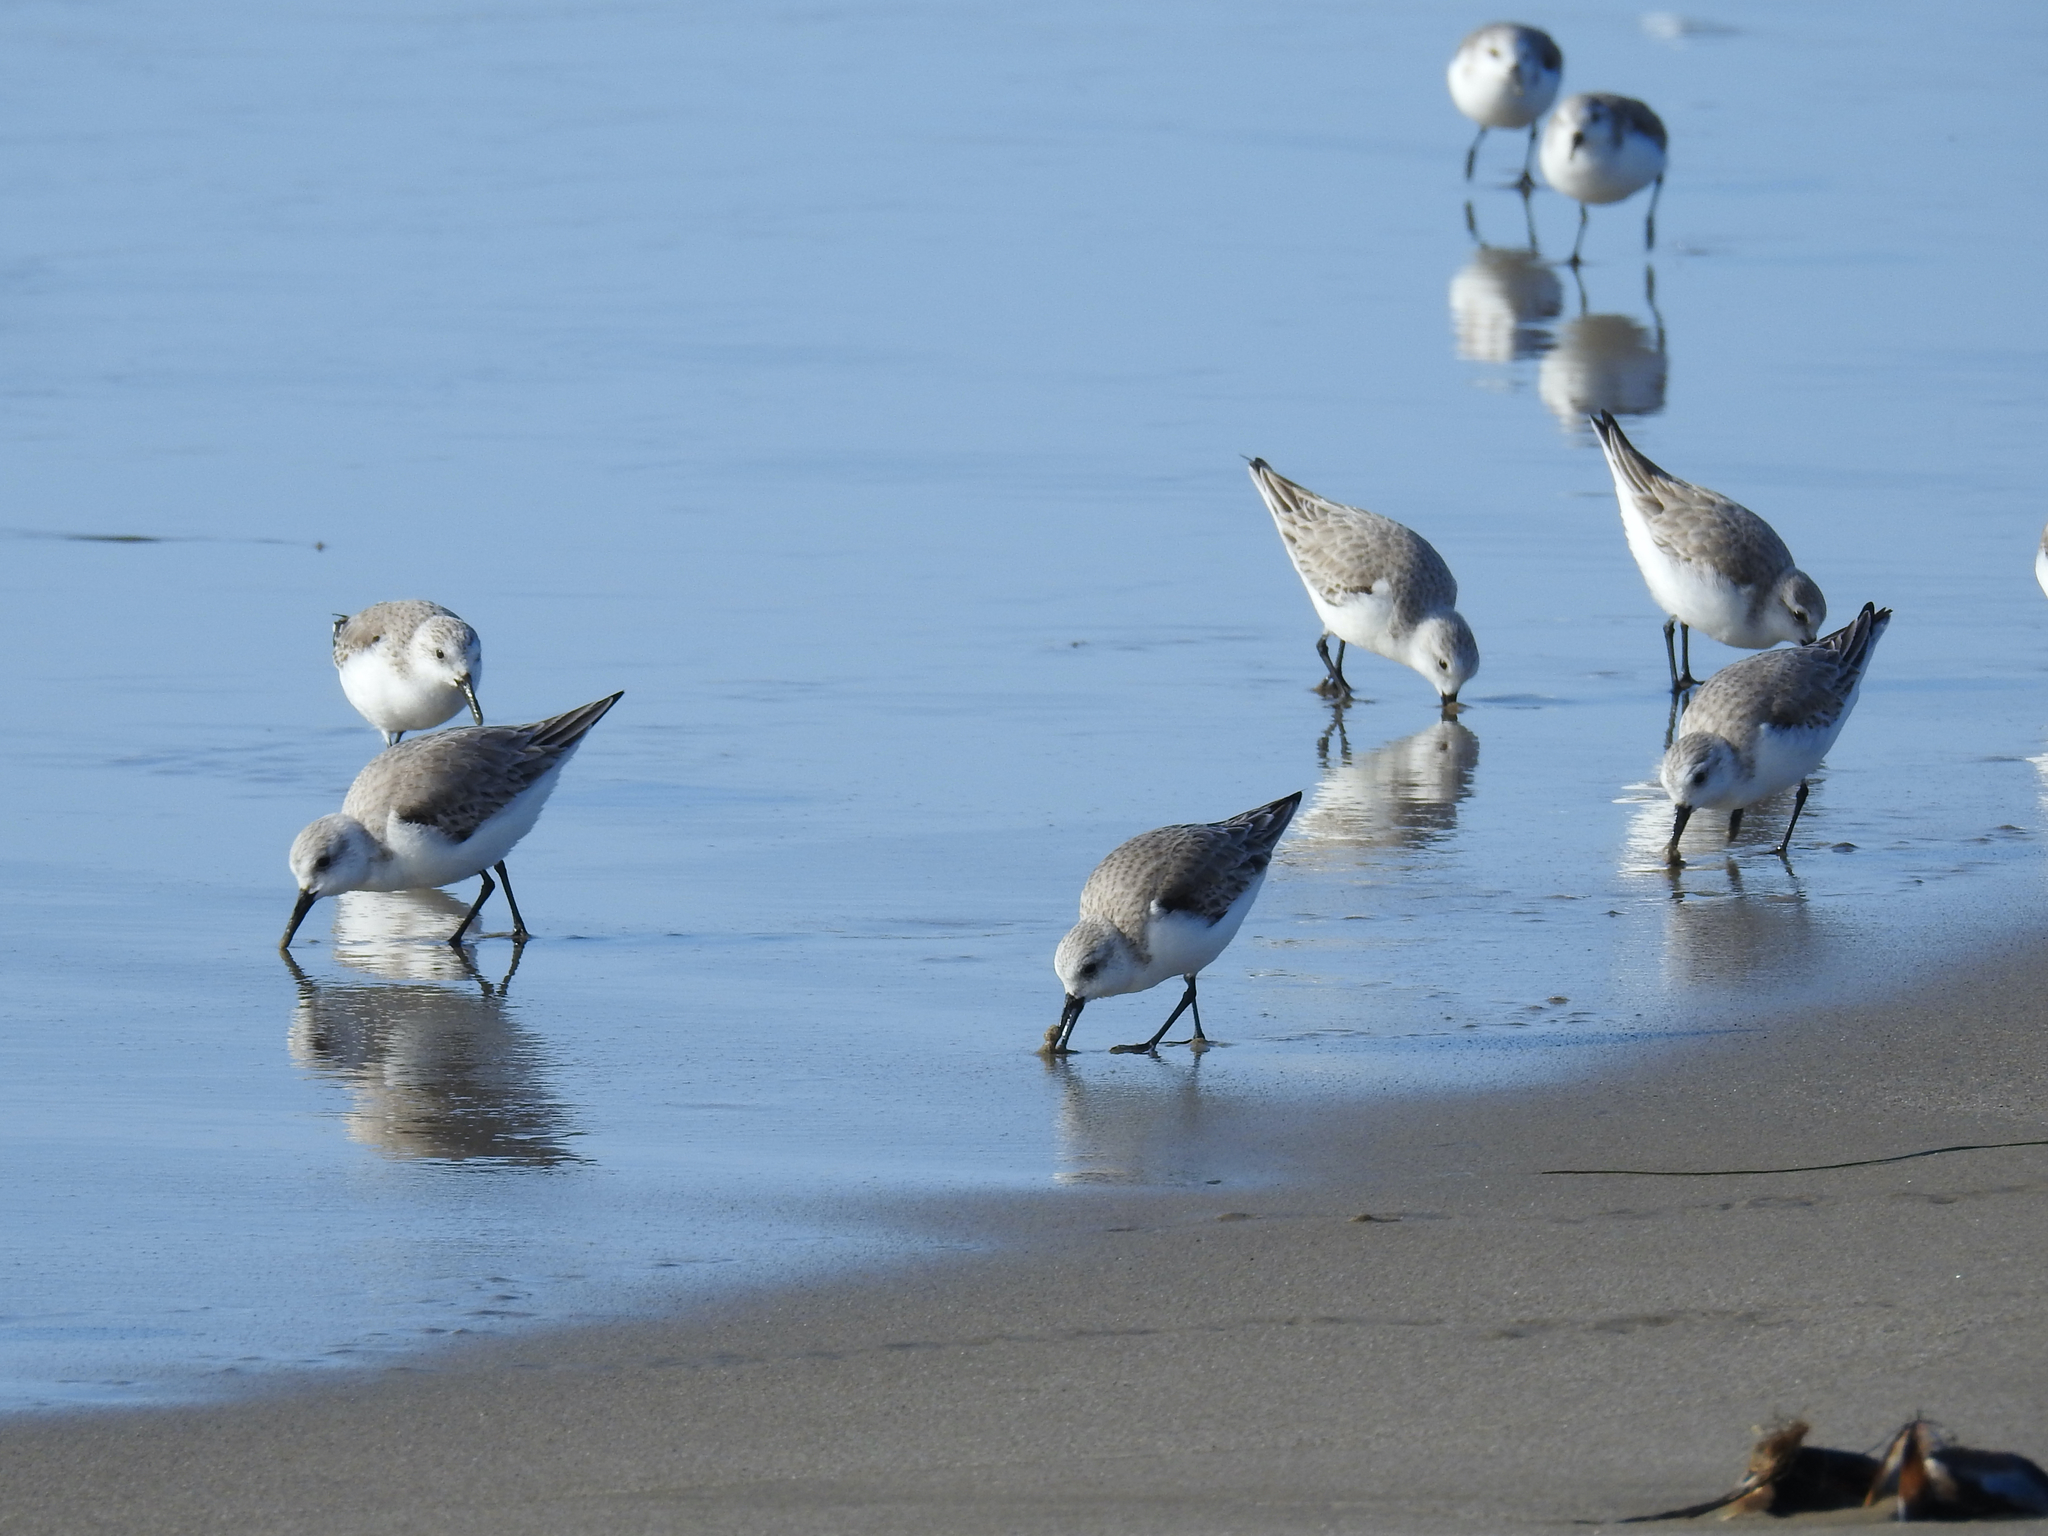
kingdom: Animalia
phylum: Chordata
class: Aves
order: Charadriiformes
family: Scolopacidae
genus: Calidris
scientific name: Calidris alba
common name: Sanderling
